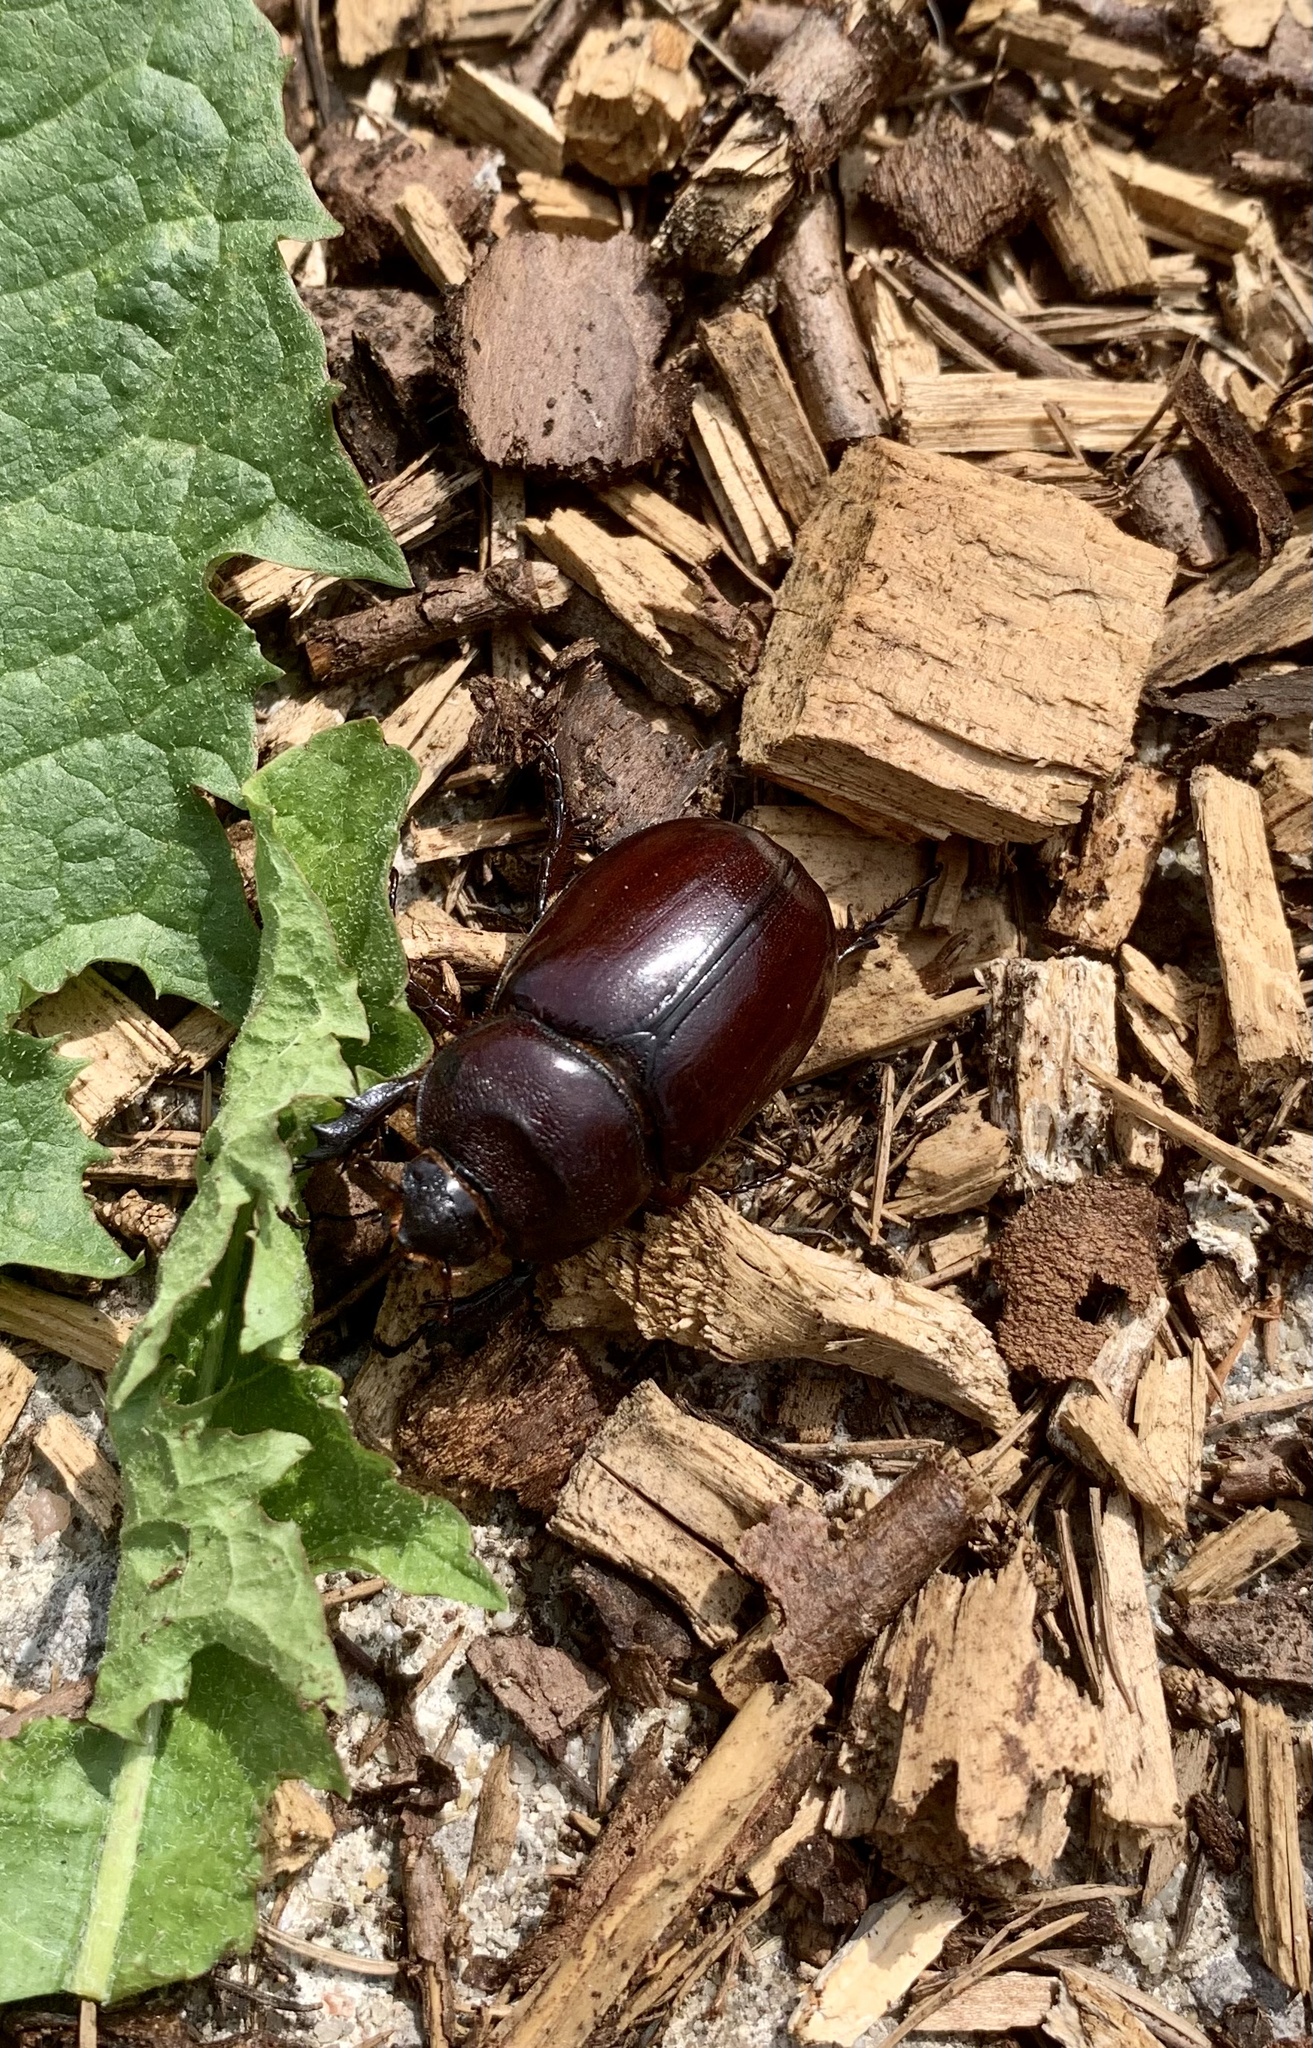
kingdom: Animalia
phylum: Arthropoda
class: Insecta
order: Coleoptera
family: Scarabaeidae
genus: Oryctes
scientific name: Oryctes nasicornis
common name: European rhinoceros beetle
